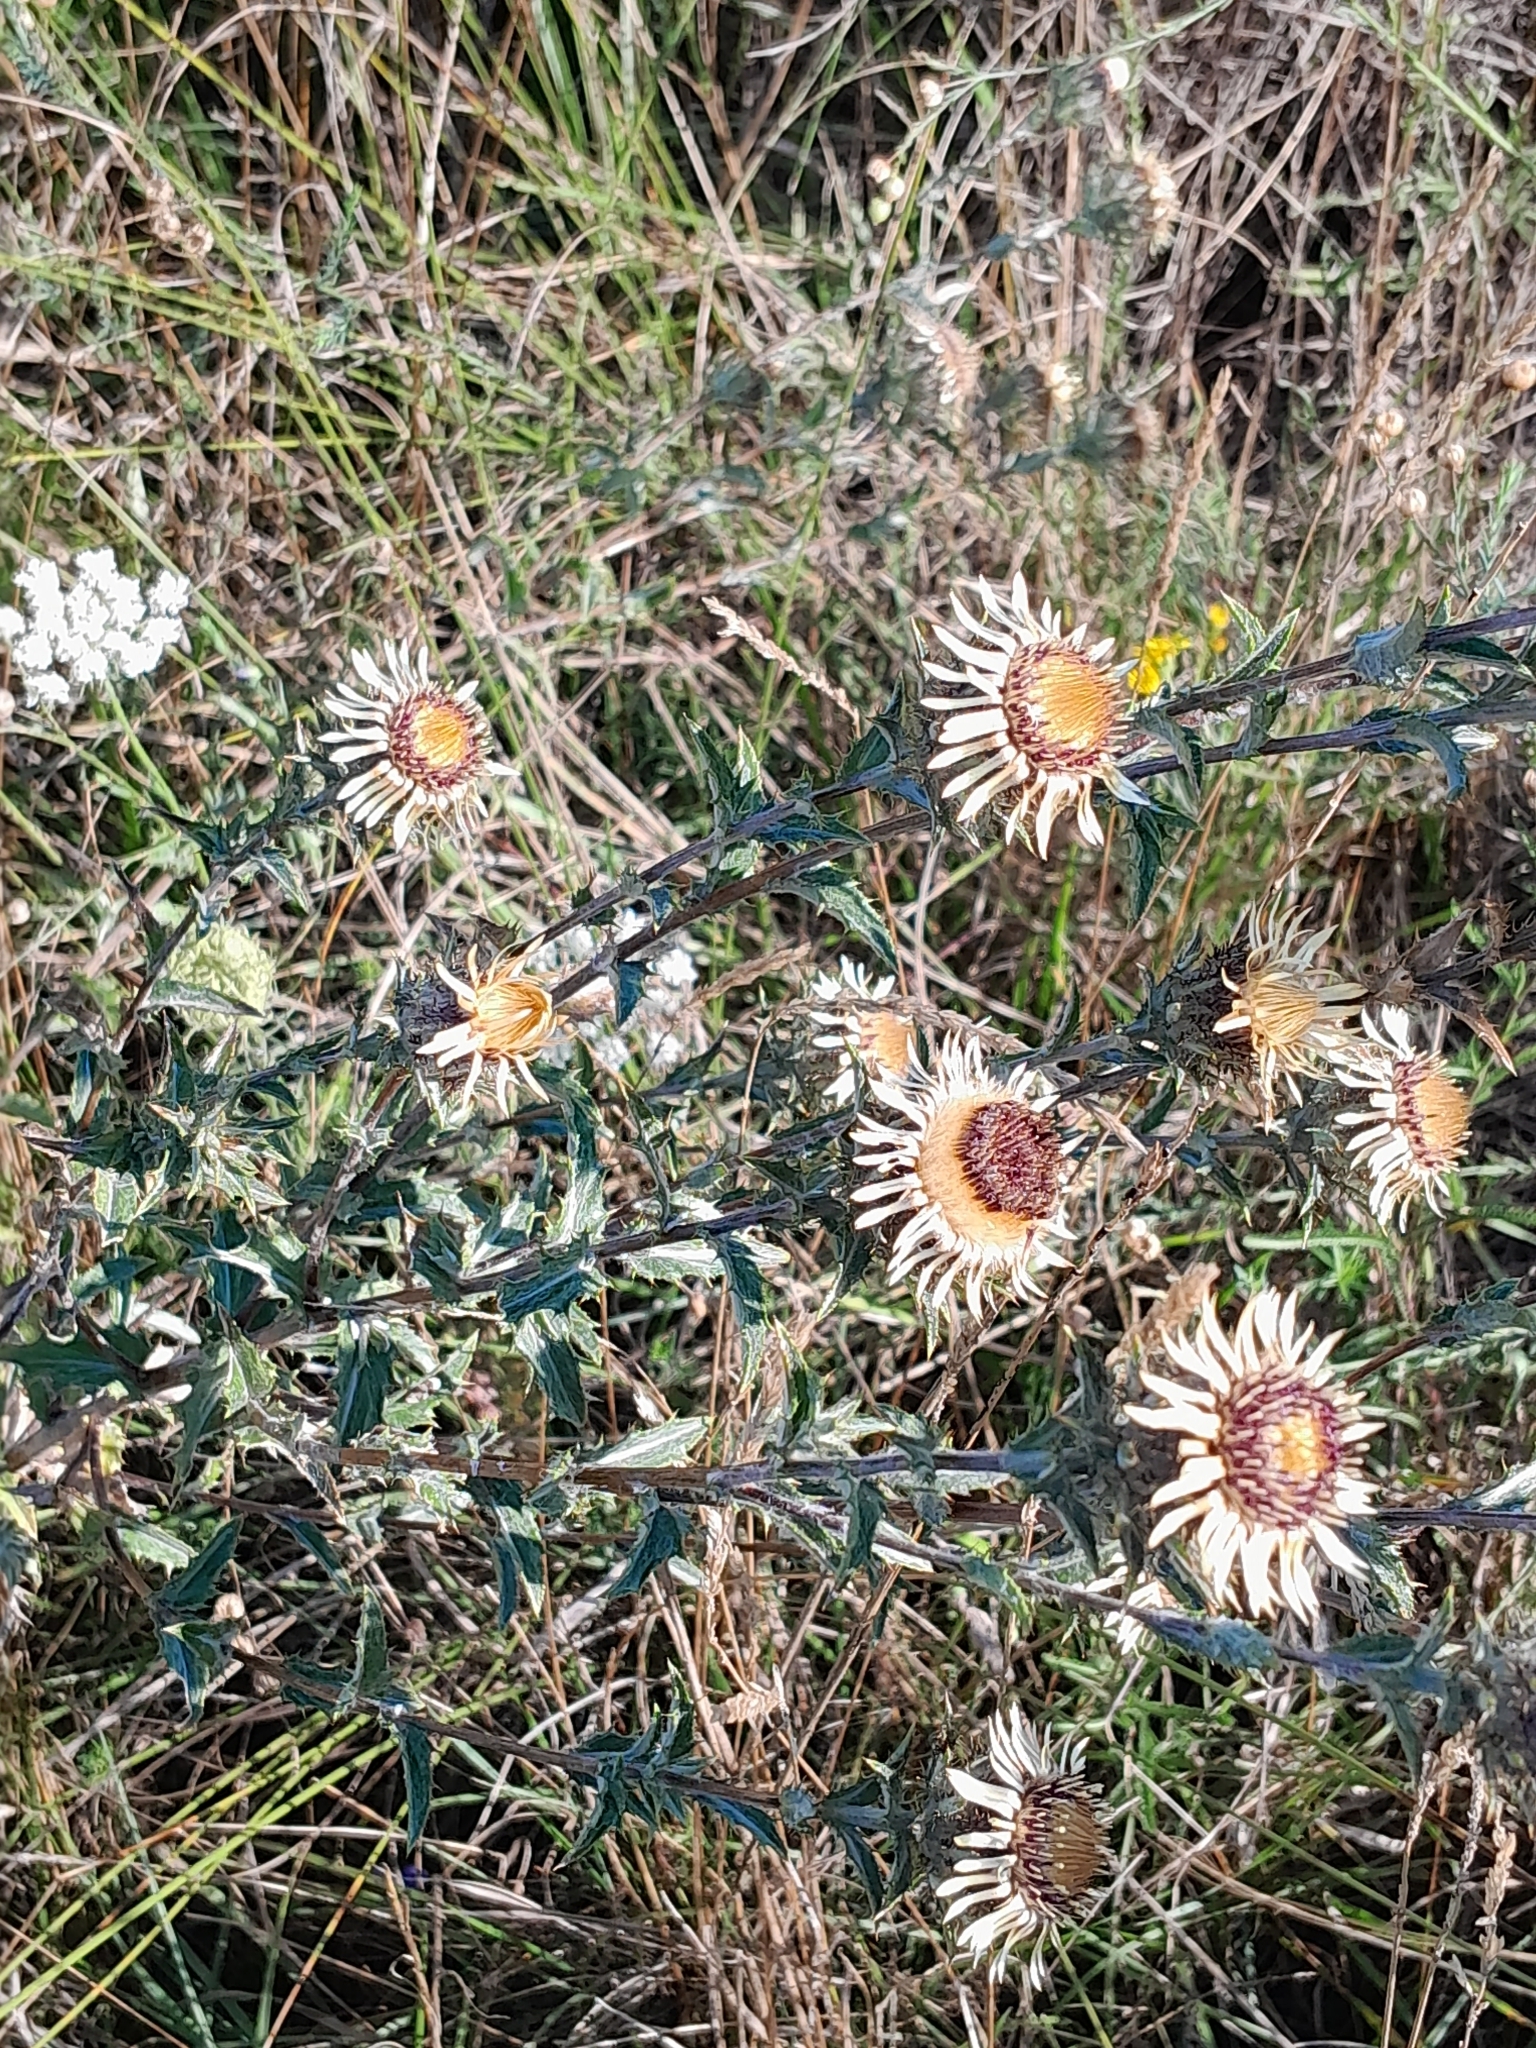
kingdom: Plantae
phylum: Tracheophyta
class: Magnoliopsida
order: Asterales
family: Asteraceae
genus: Carlina
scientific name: Carlina vulgaris
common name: Carline thistle
